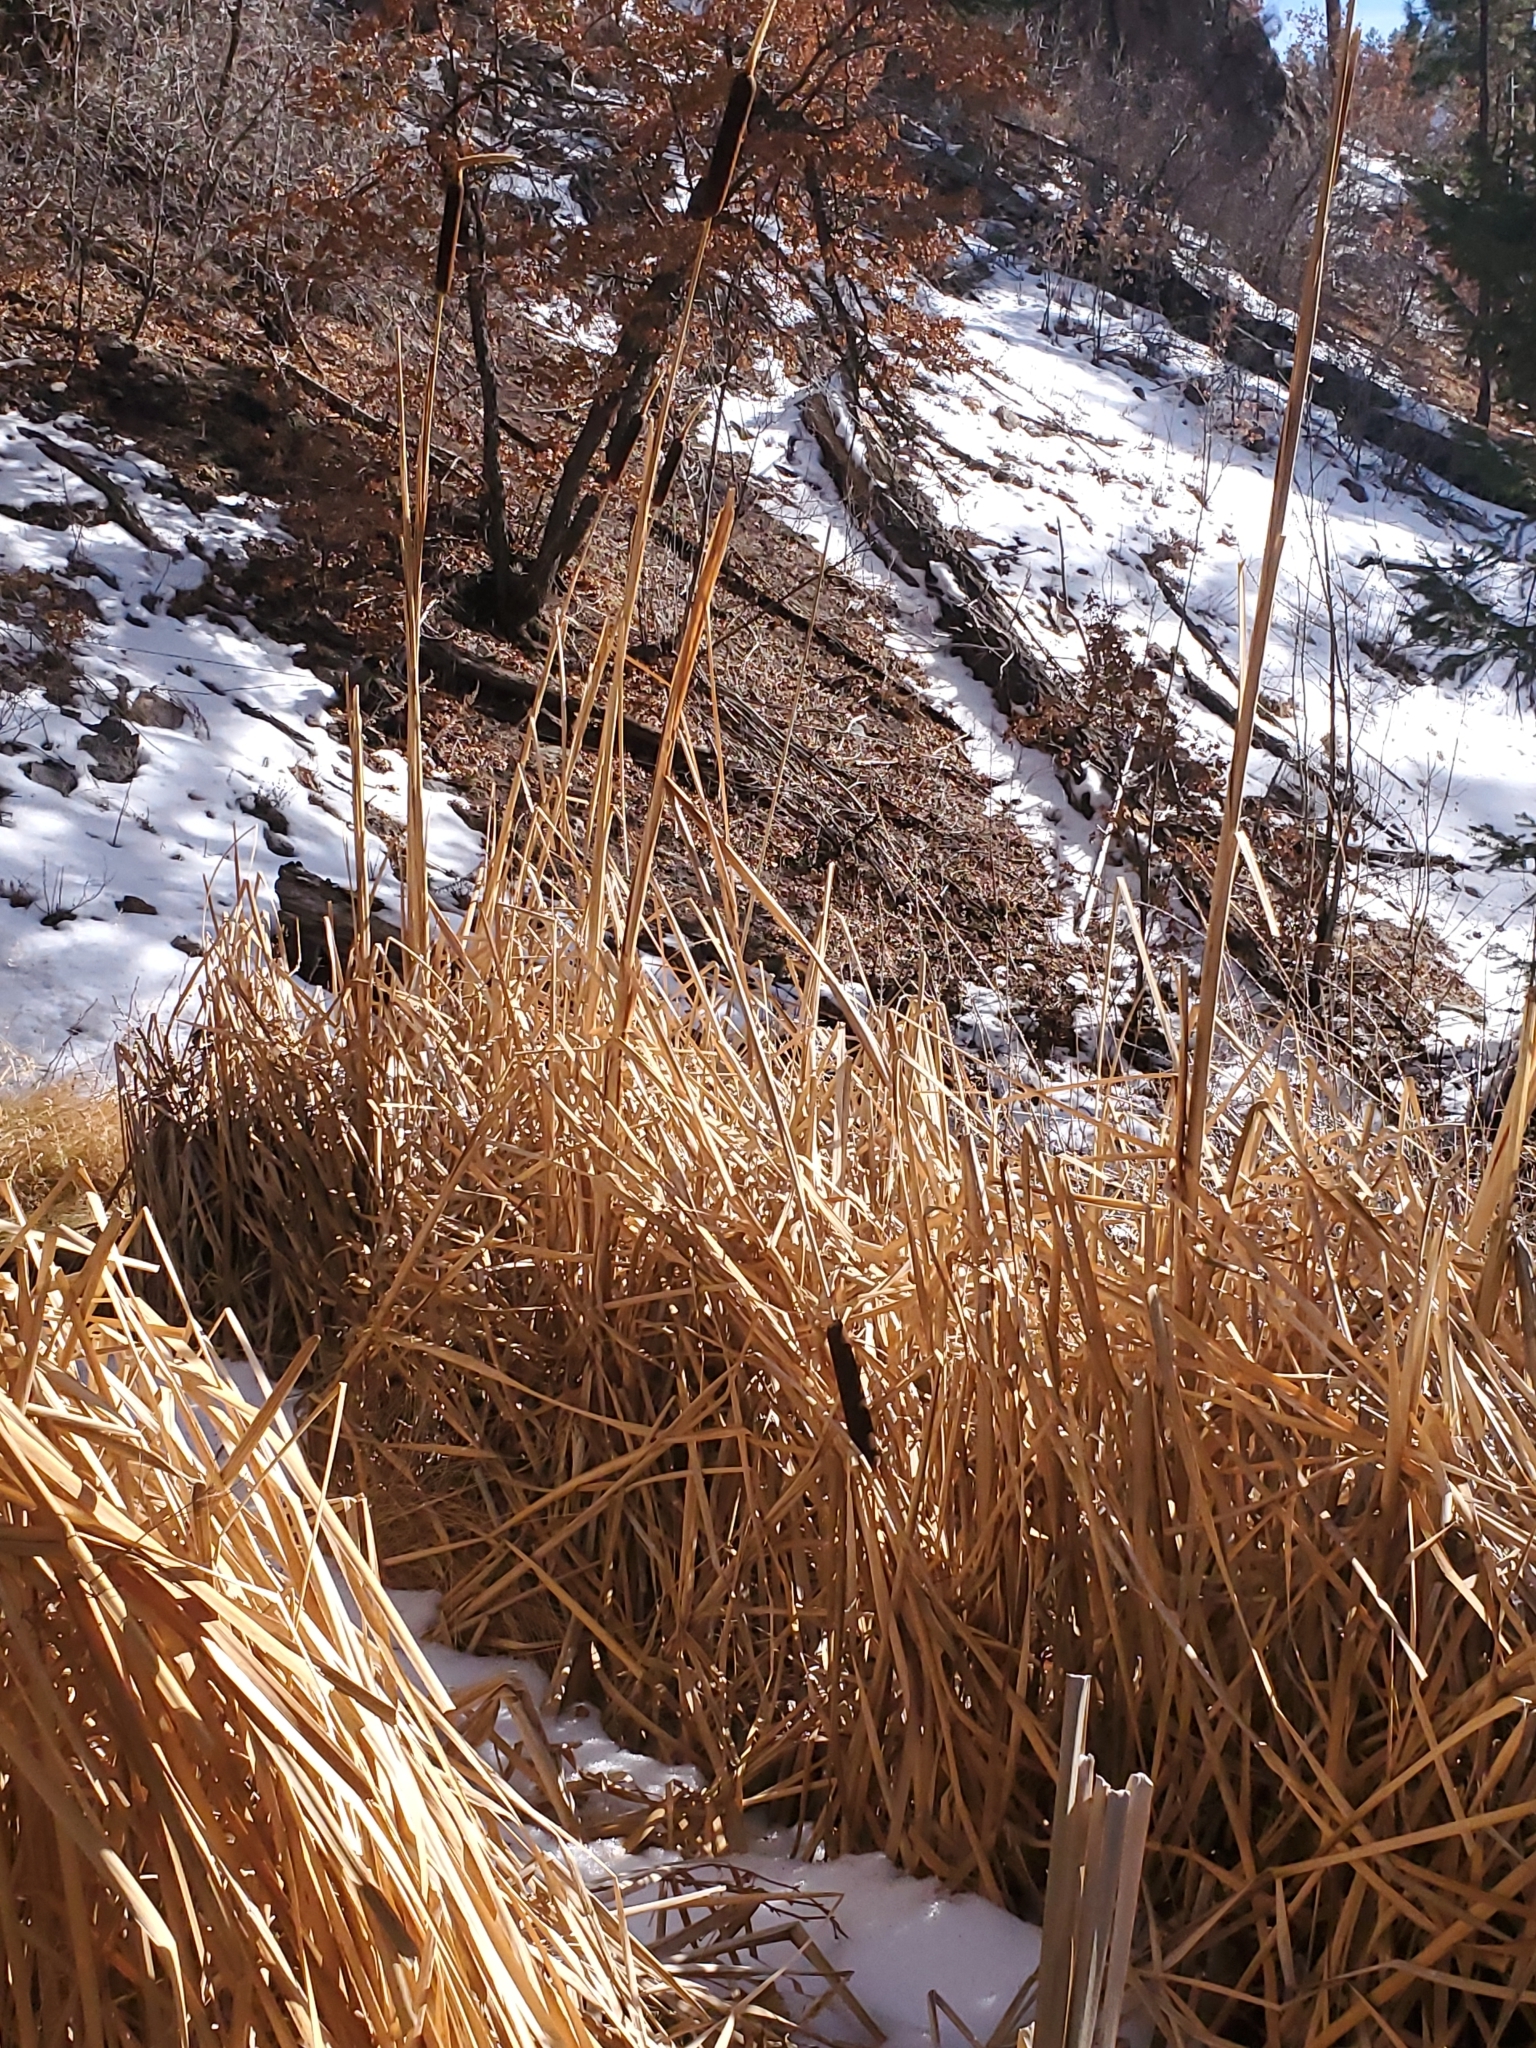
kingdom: Plantae
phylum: Tracheophyta
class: Liliopsida
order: Poales
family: Typhaceae
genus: Typha
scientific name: Typha latifolia
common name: Broadleaf cattail
